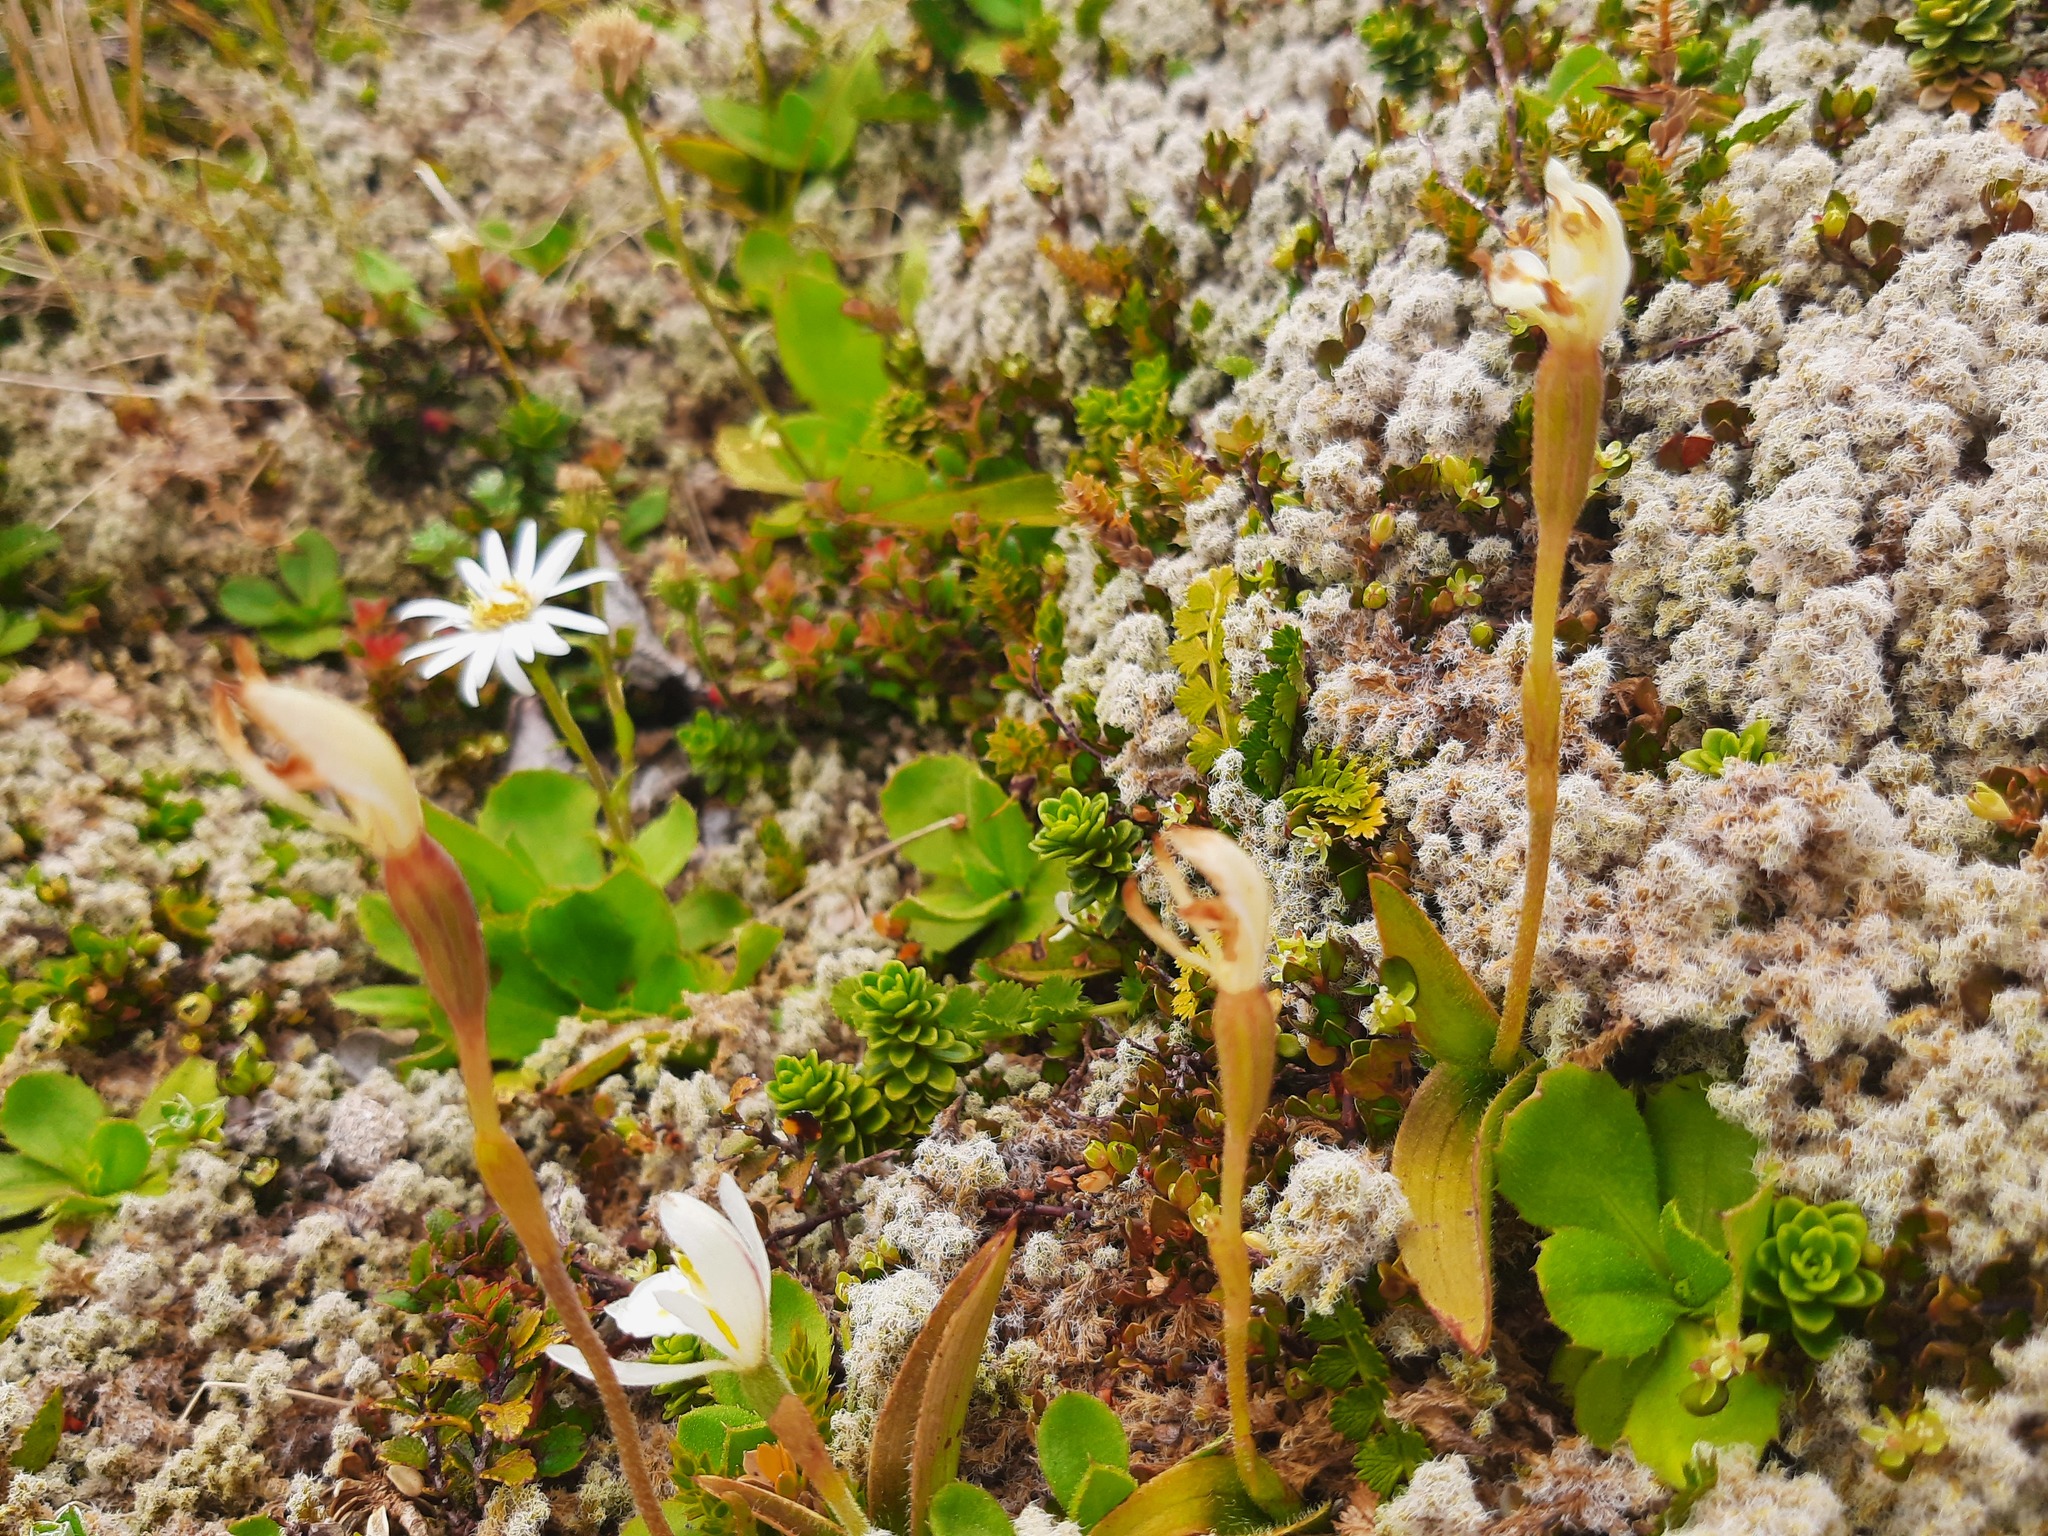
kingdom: Plantae
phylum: Tracheophyta
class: Liliopsida
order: Asparagales
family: Orchidaceae
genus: Aporostylis
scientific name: Aporostylis bifolia
